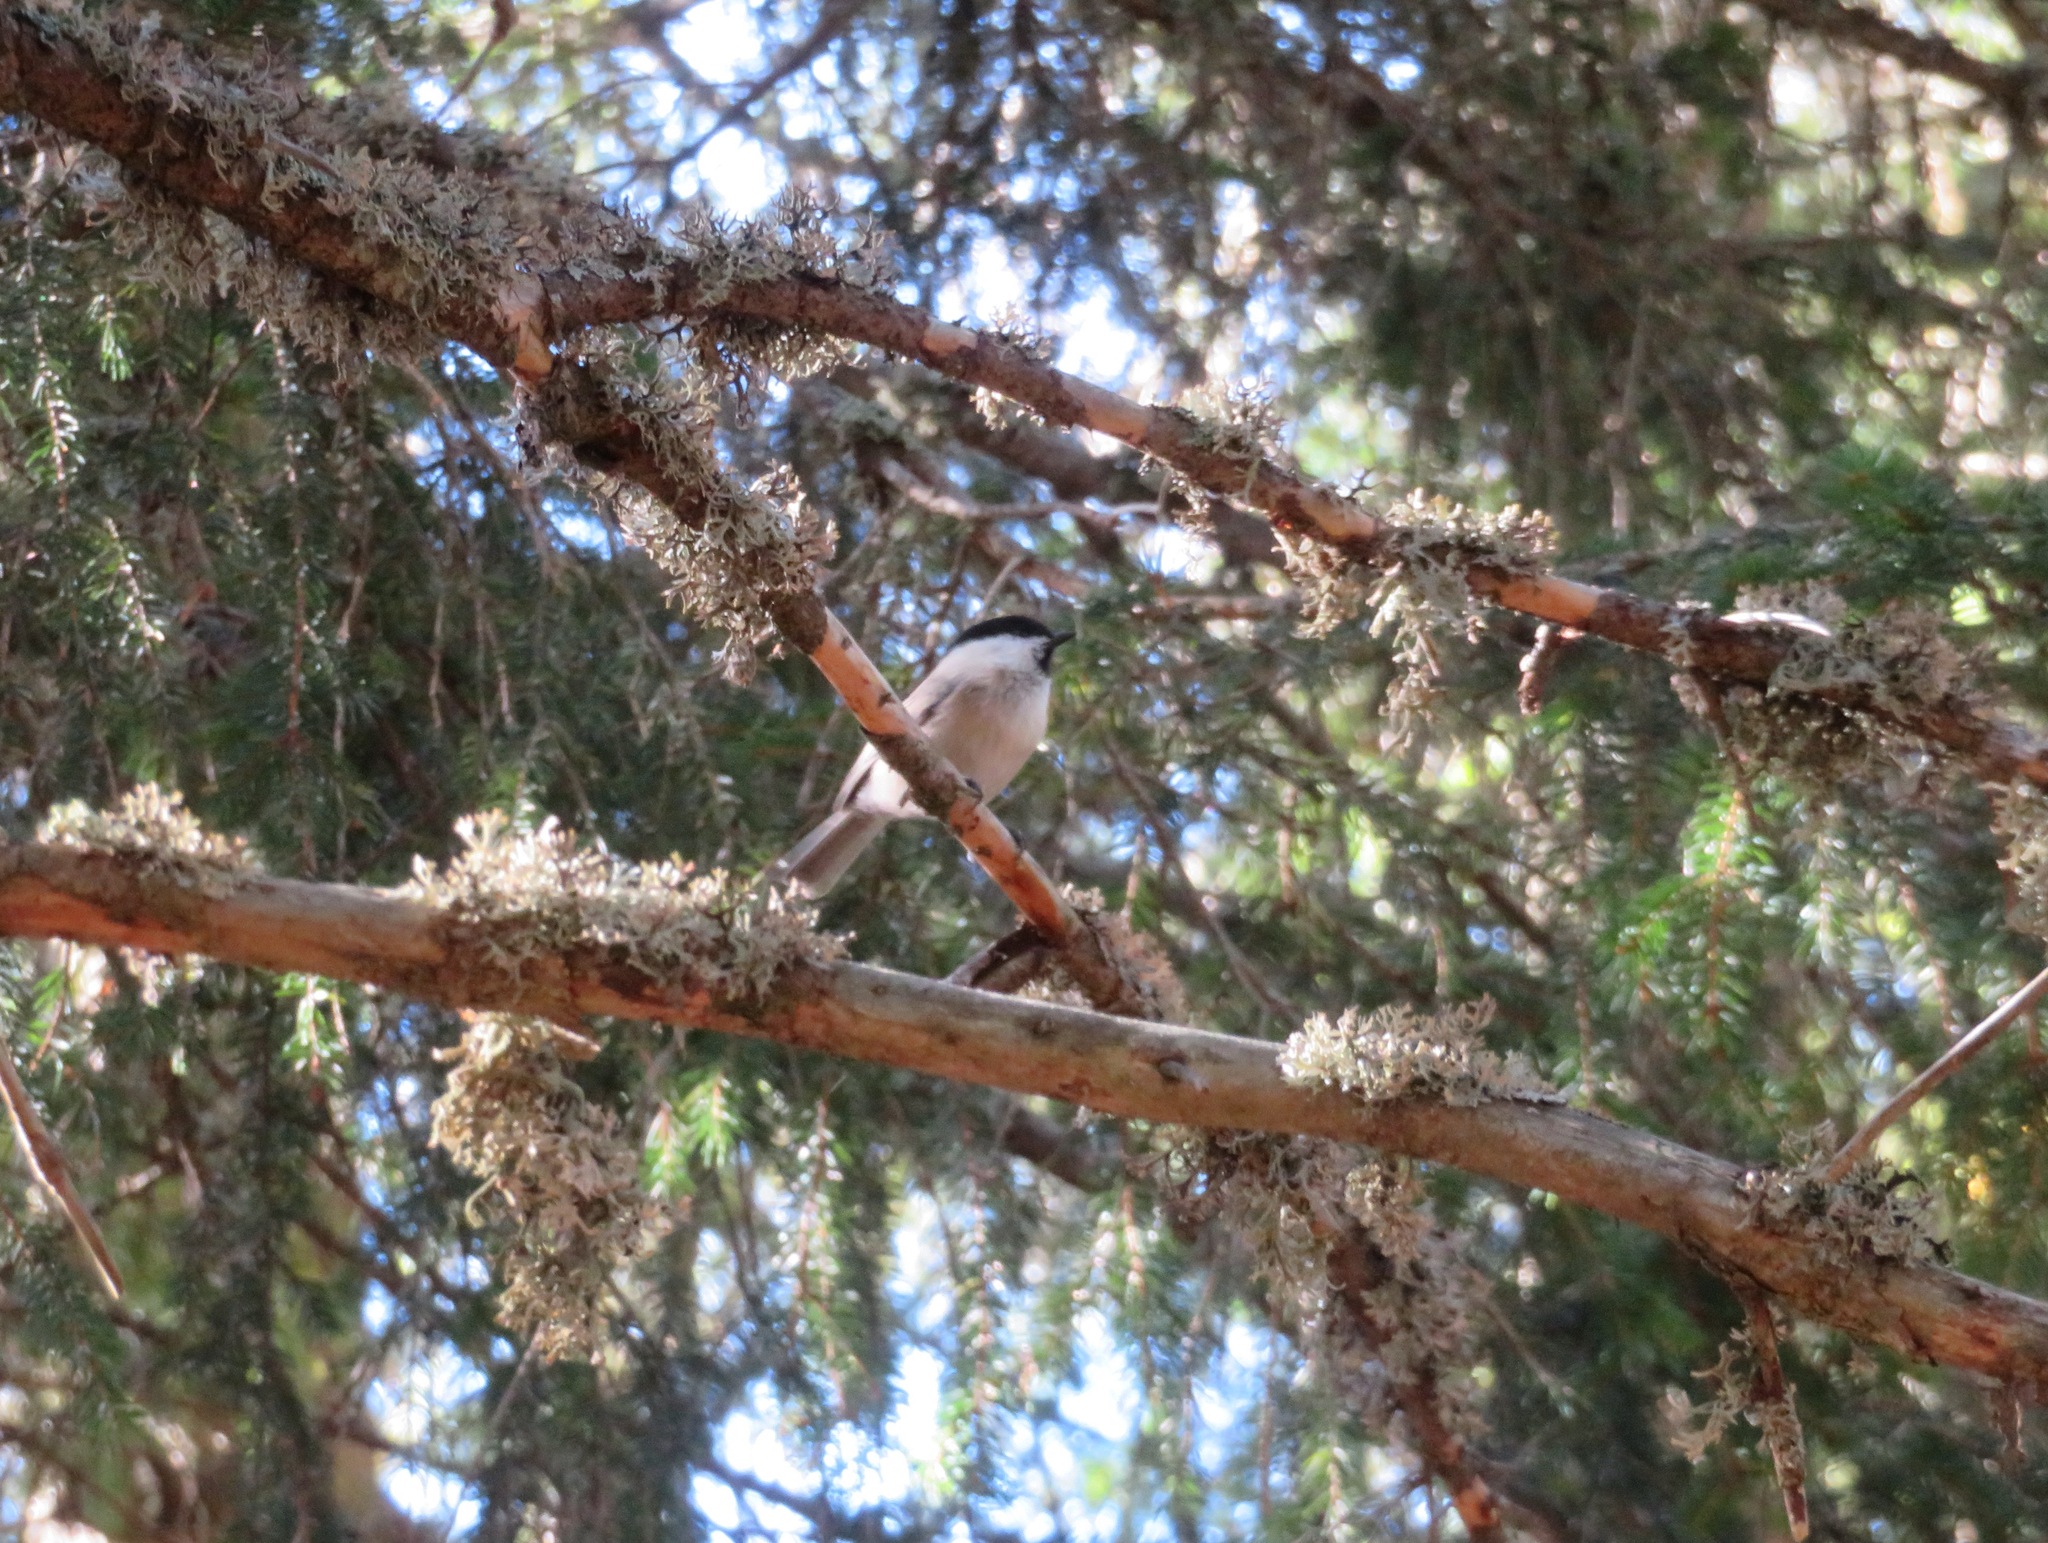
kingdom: Animalia
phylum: Chordata
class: Aves
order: Passeriformes
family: Paridae
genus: Poecile
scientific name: Poecile montanus
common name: Willow tit
